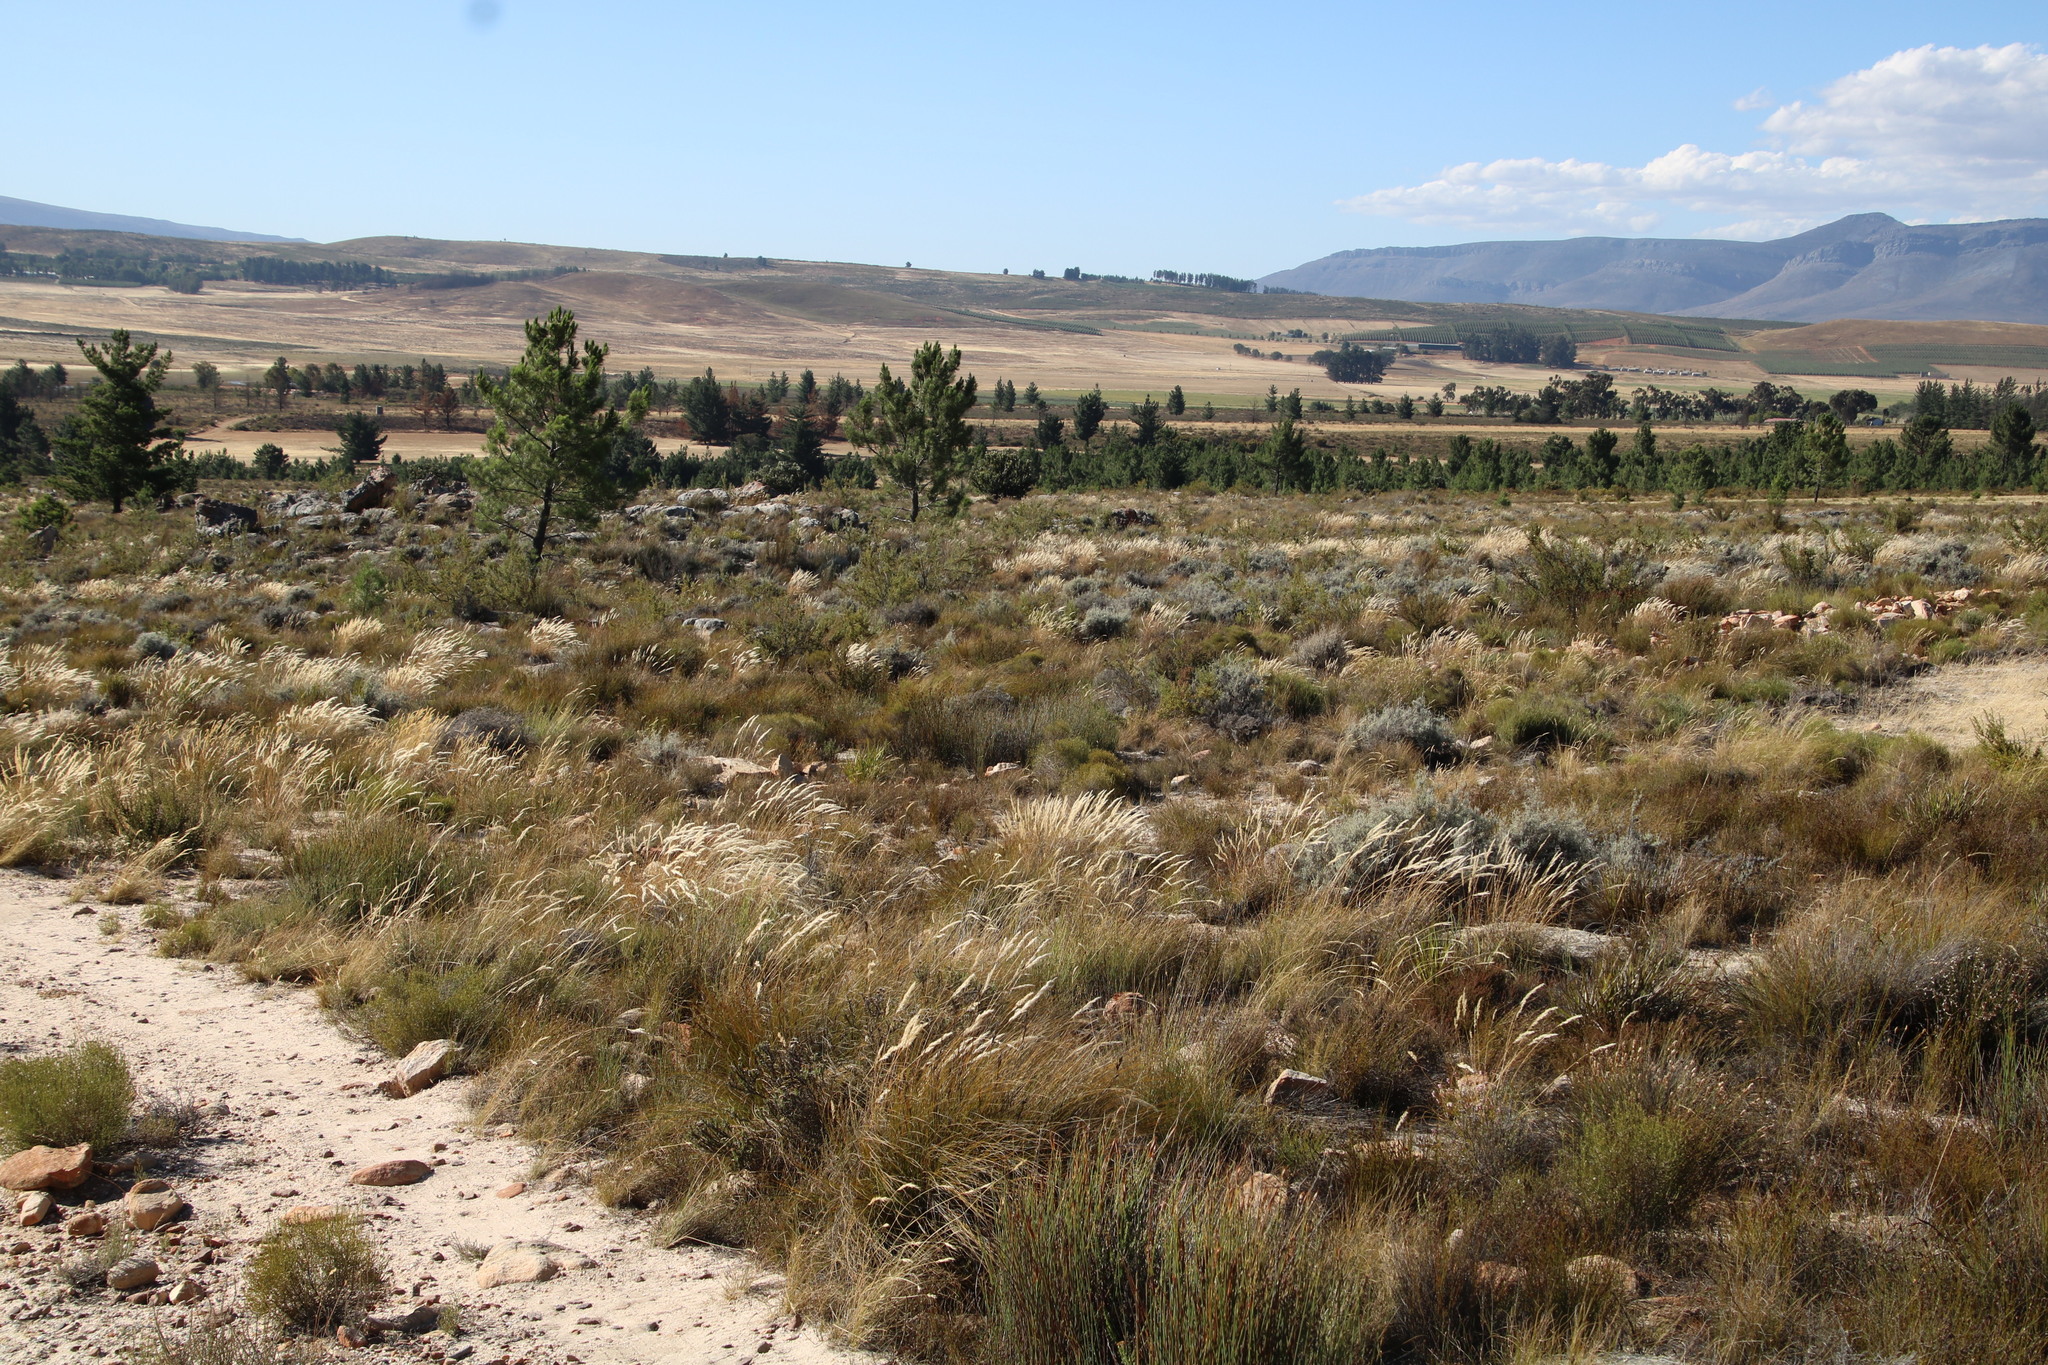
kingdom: Plantae
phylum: Tracheophyta
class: Liliopsida
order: Poales
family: Poaceae
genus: Pentameris
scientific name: Pentameris eriostoma
